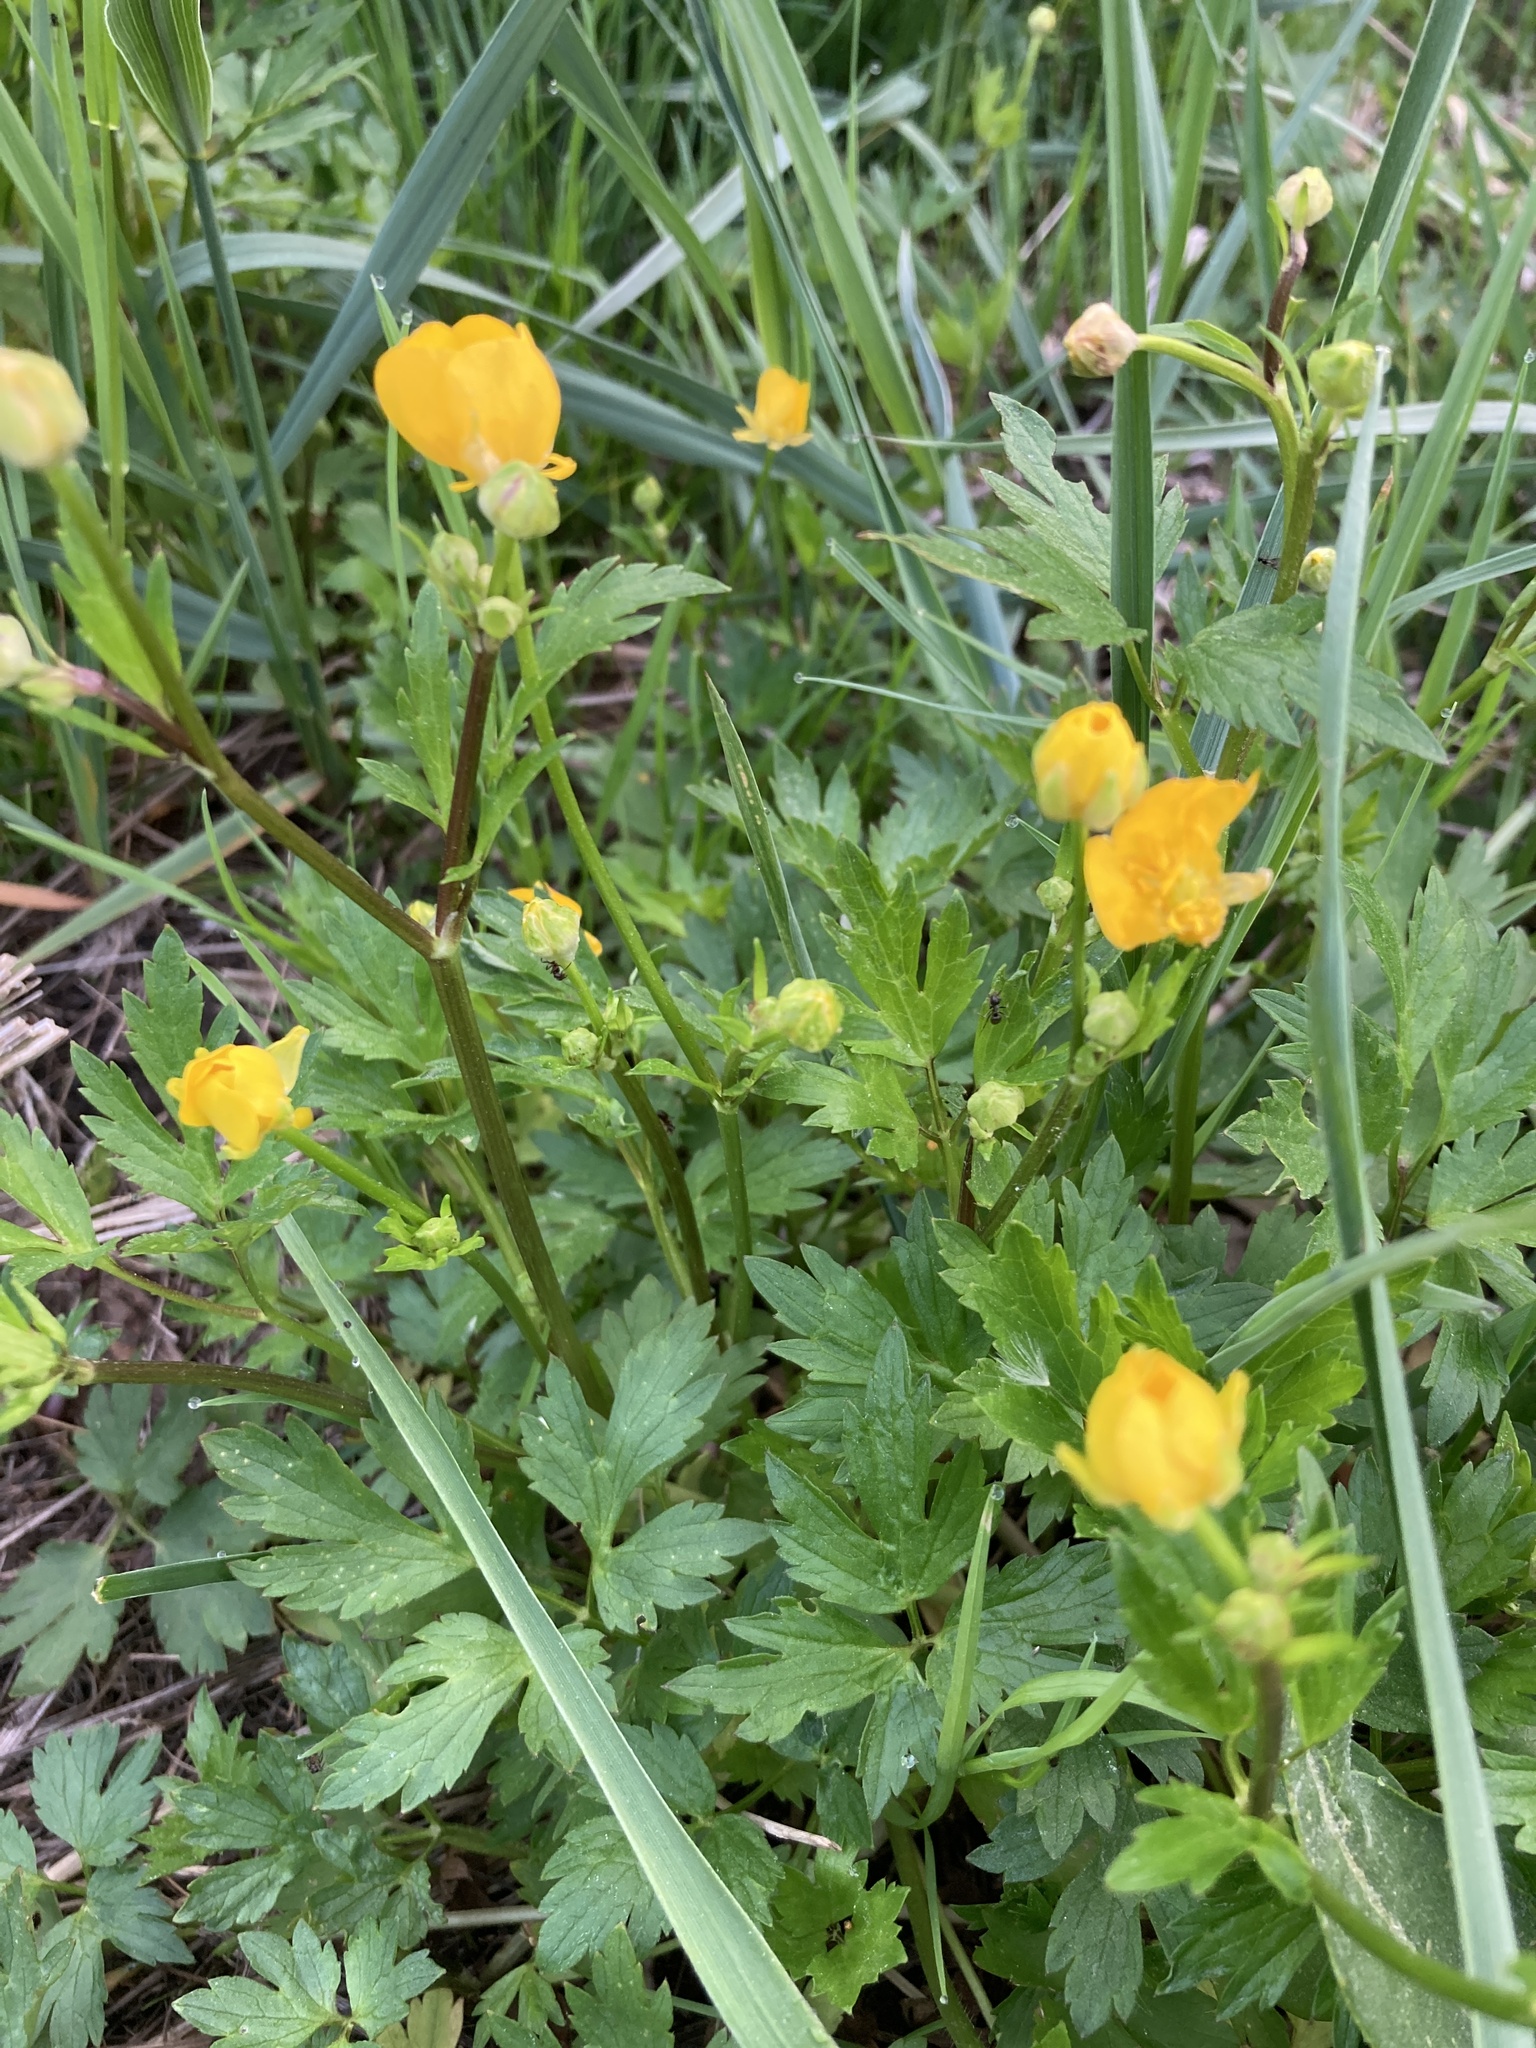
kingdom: Plantae
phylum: Tracheophyta
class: Magnoliopsida
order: Ranunculales
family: Ranunculaceae
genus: Ranunculus
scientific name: Ranunculus repens
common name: Creeping buttercup
